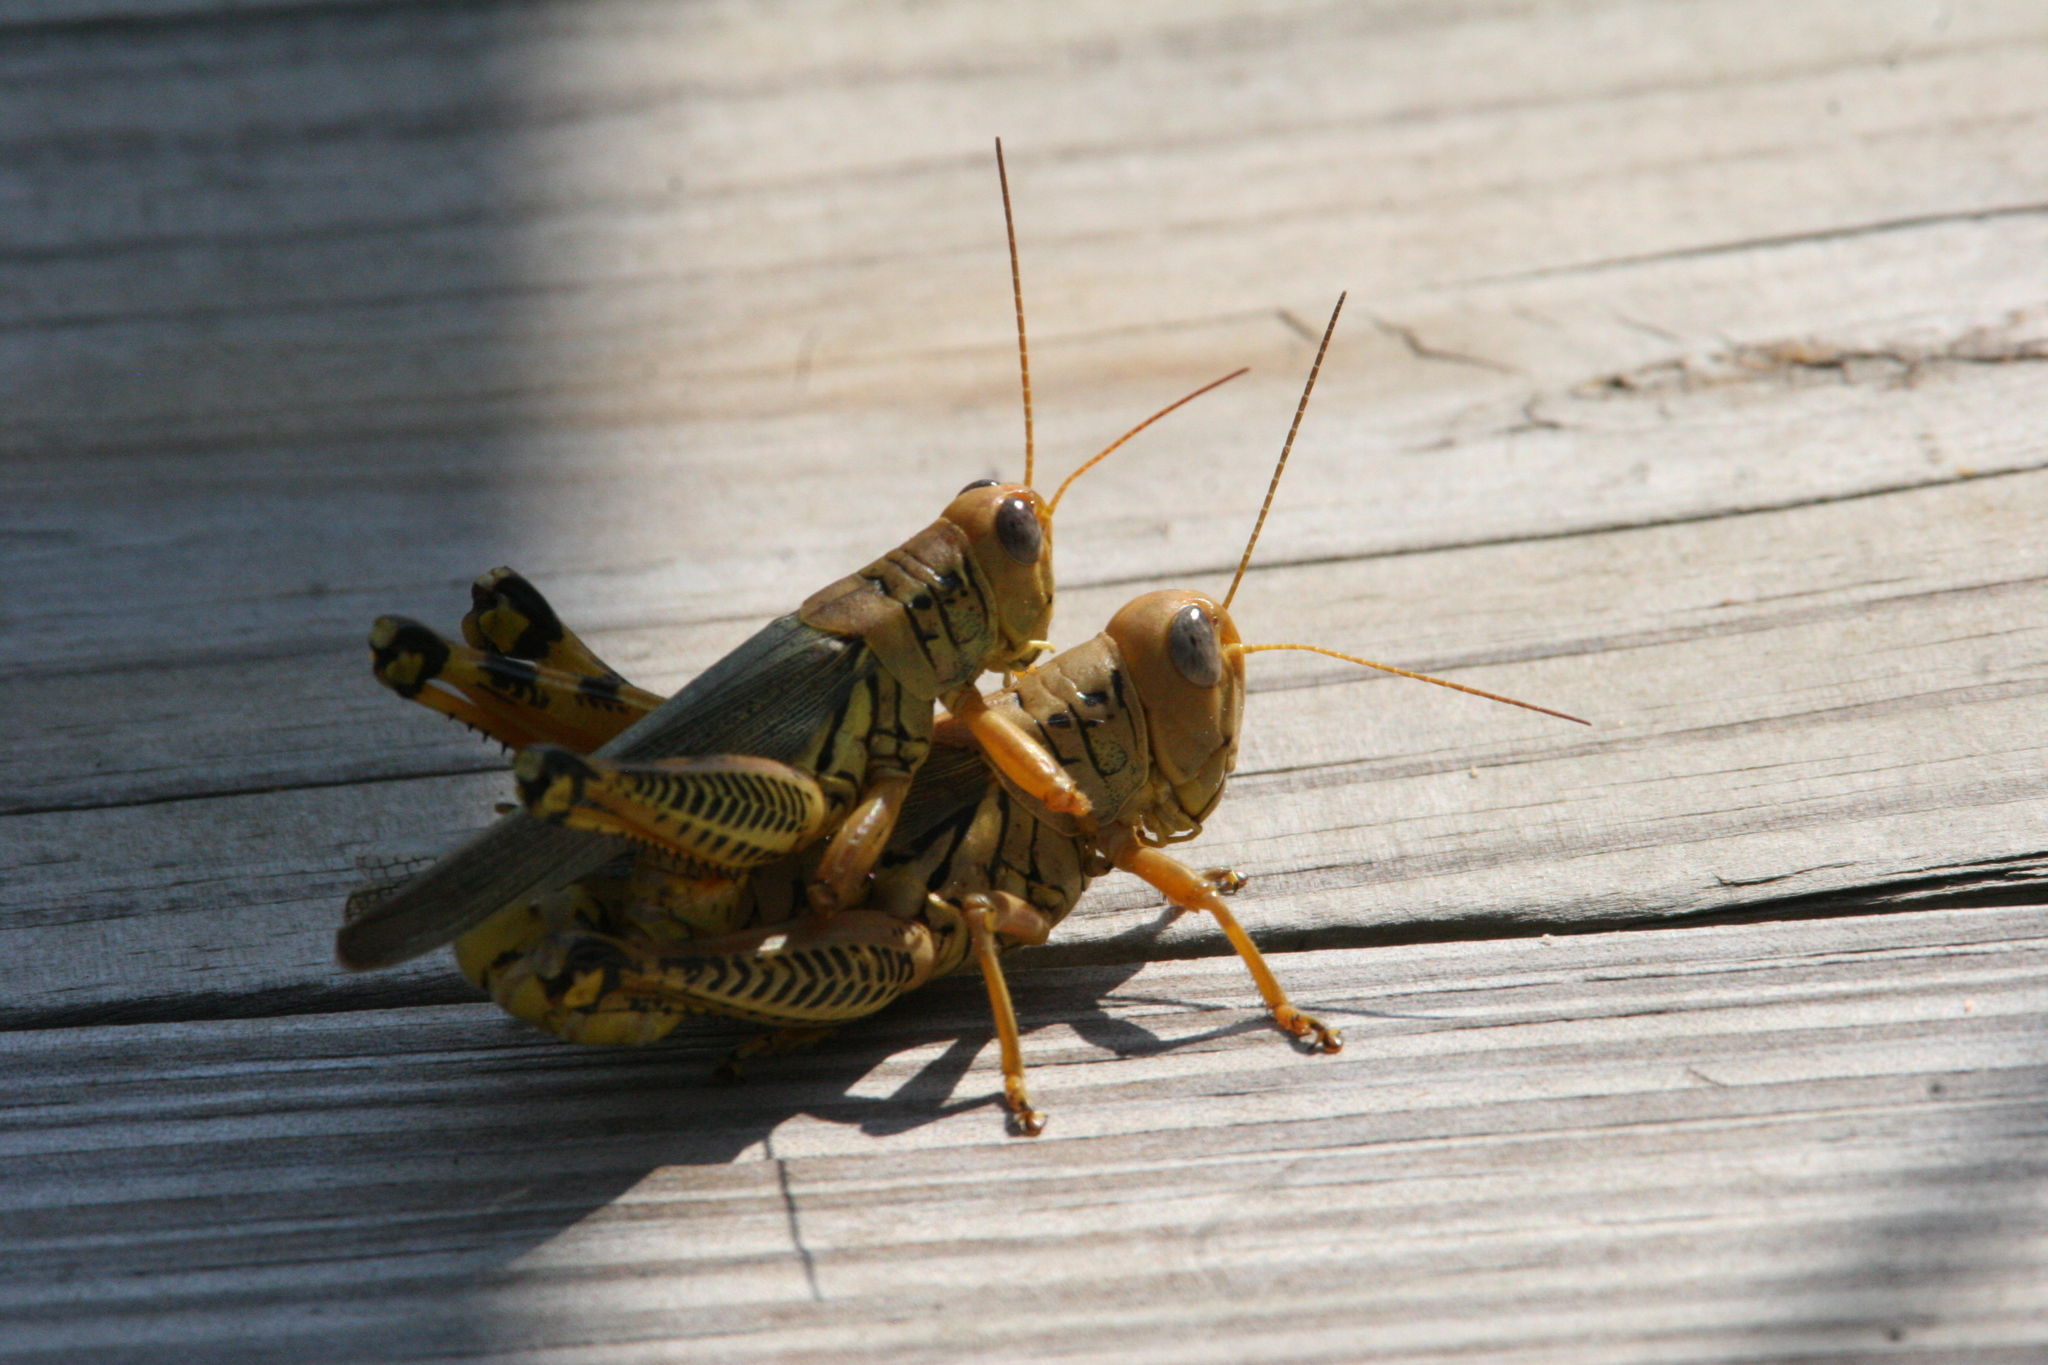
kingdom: Animalia
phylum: Arthropoda
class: Insecta
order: Orthoptera
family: Acrididae
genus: Melanoplus
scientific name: Melanoplus differentialis
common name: Differential grasshopper
